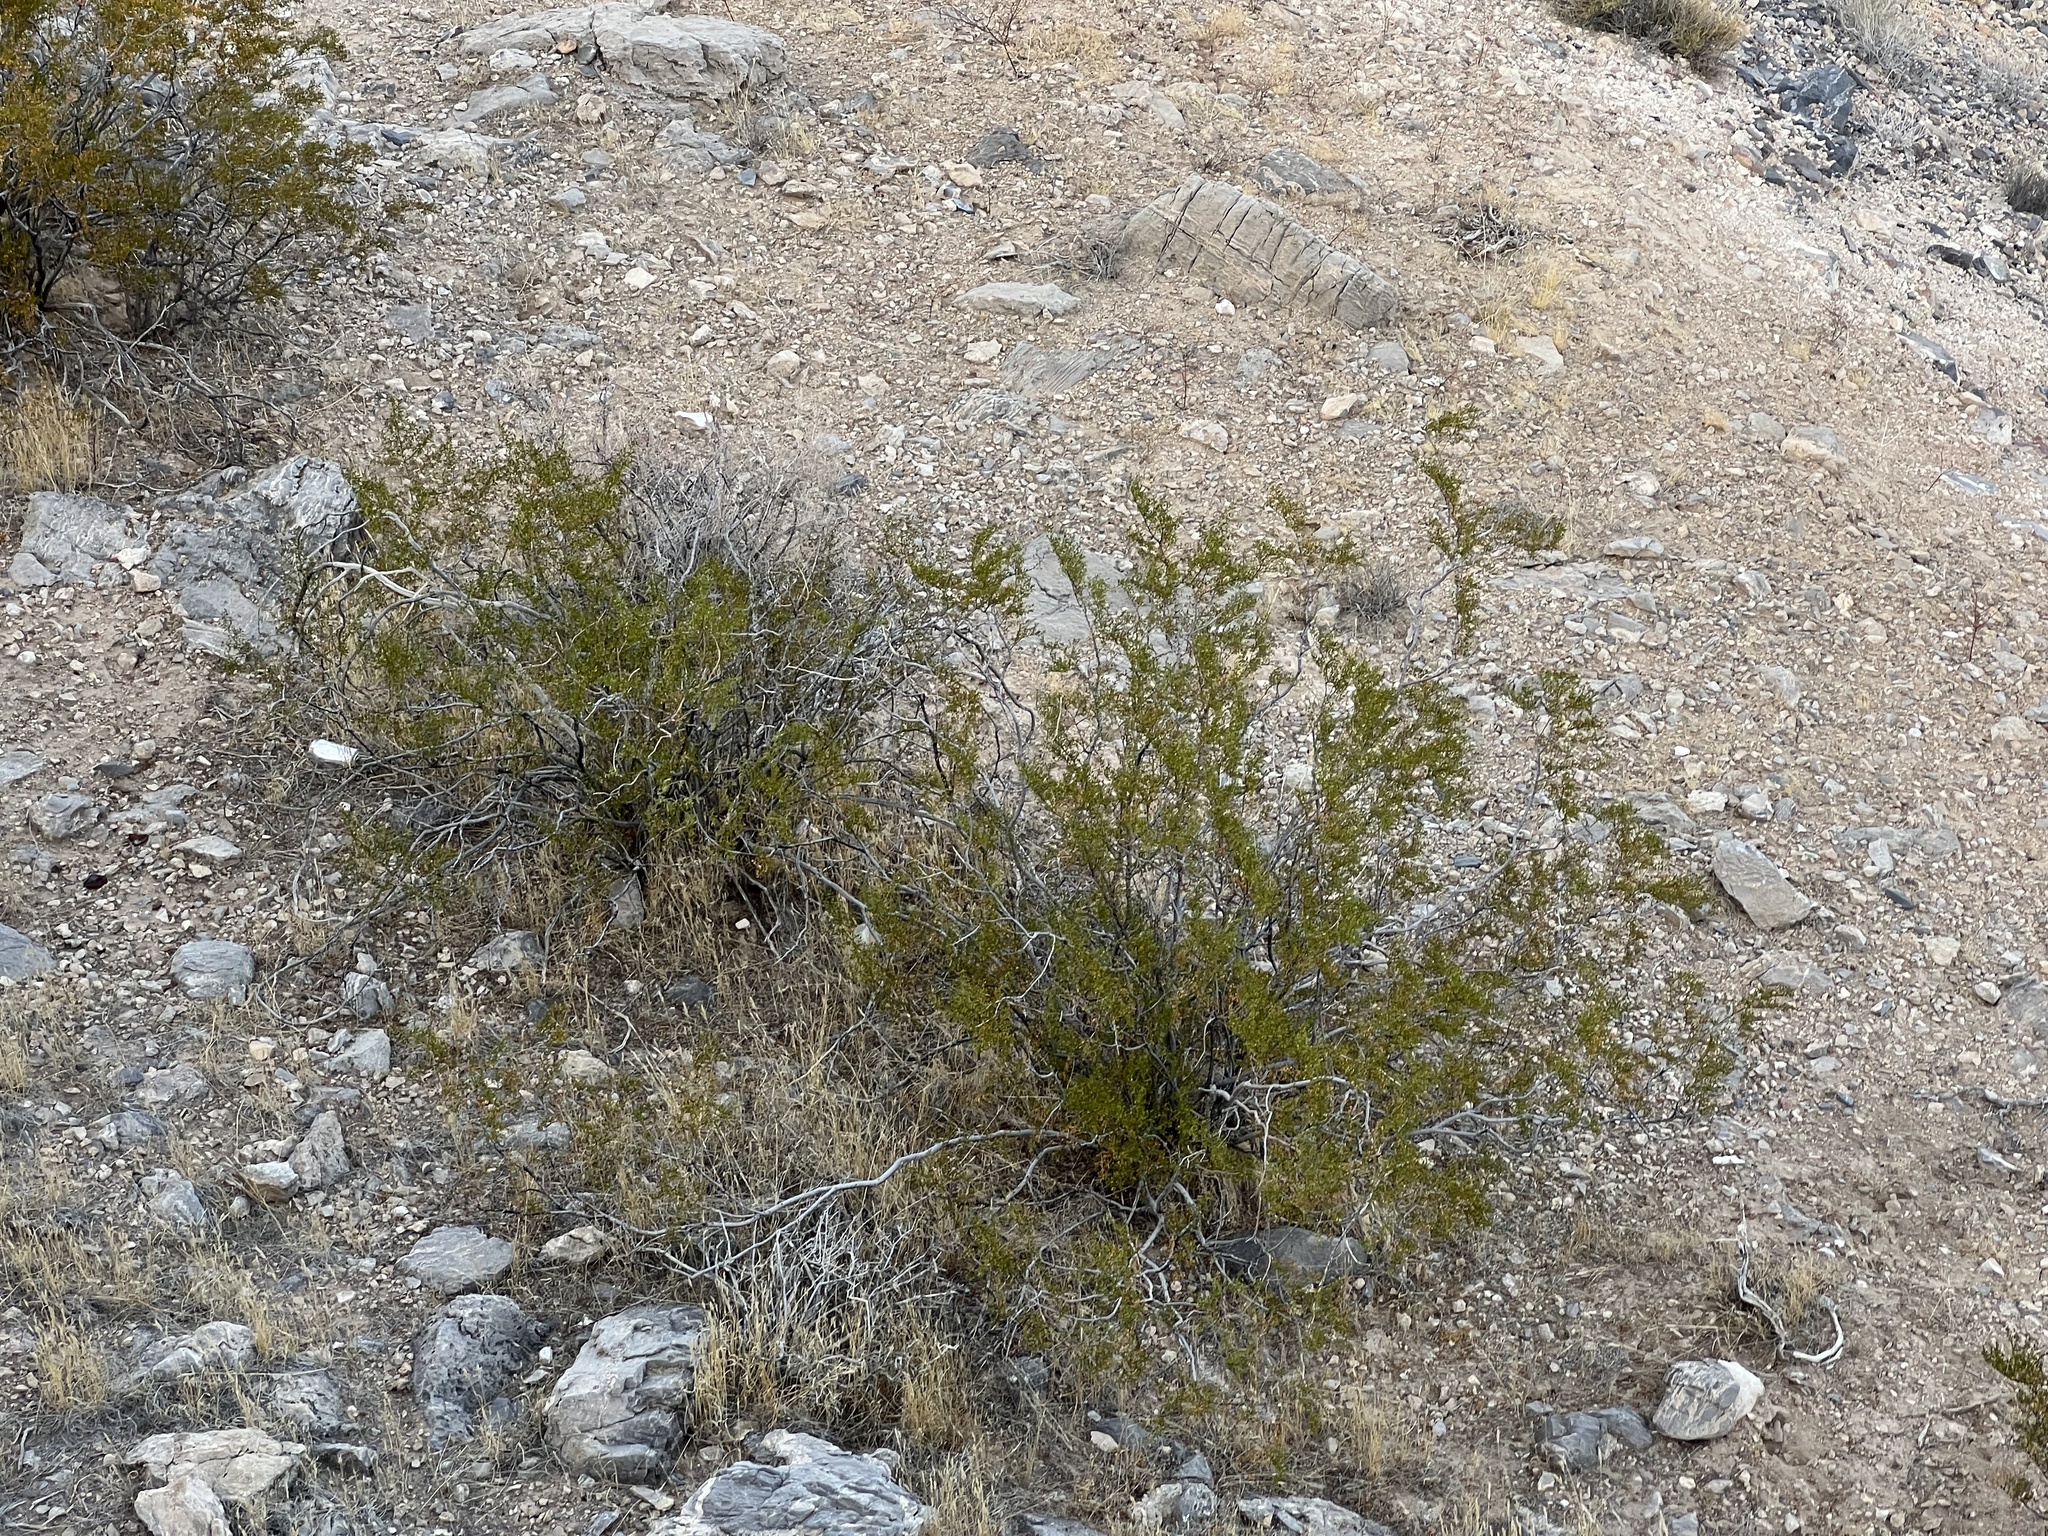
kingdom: Plantae
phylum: Tracheophyta
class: Magnoliopsida
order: Zygophyllales
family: Zygophyllaceae
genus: Larrea
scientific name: Larrea tridentata
